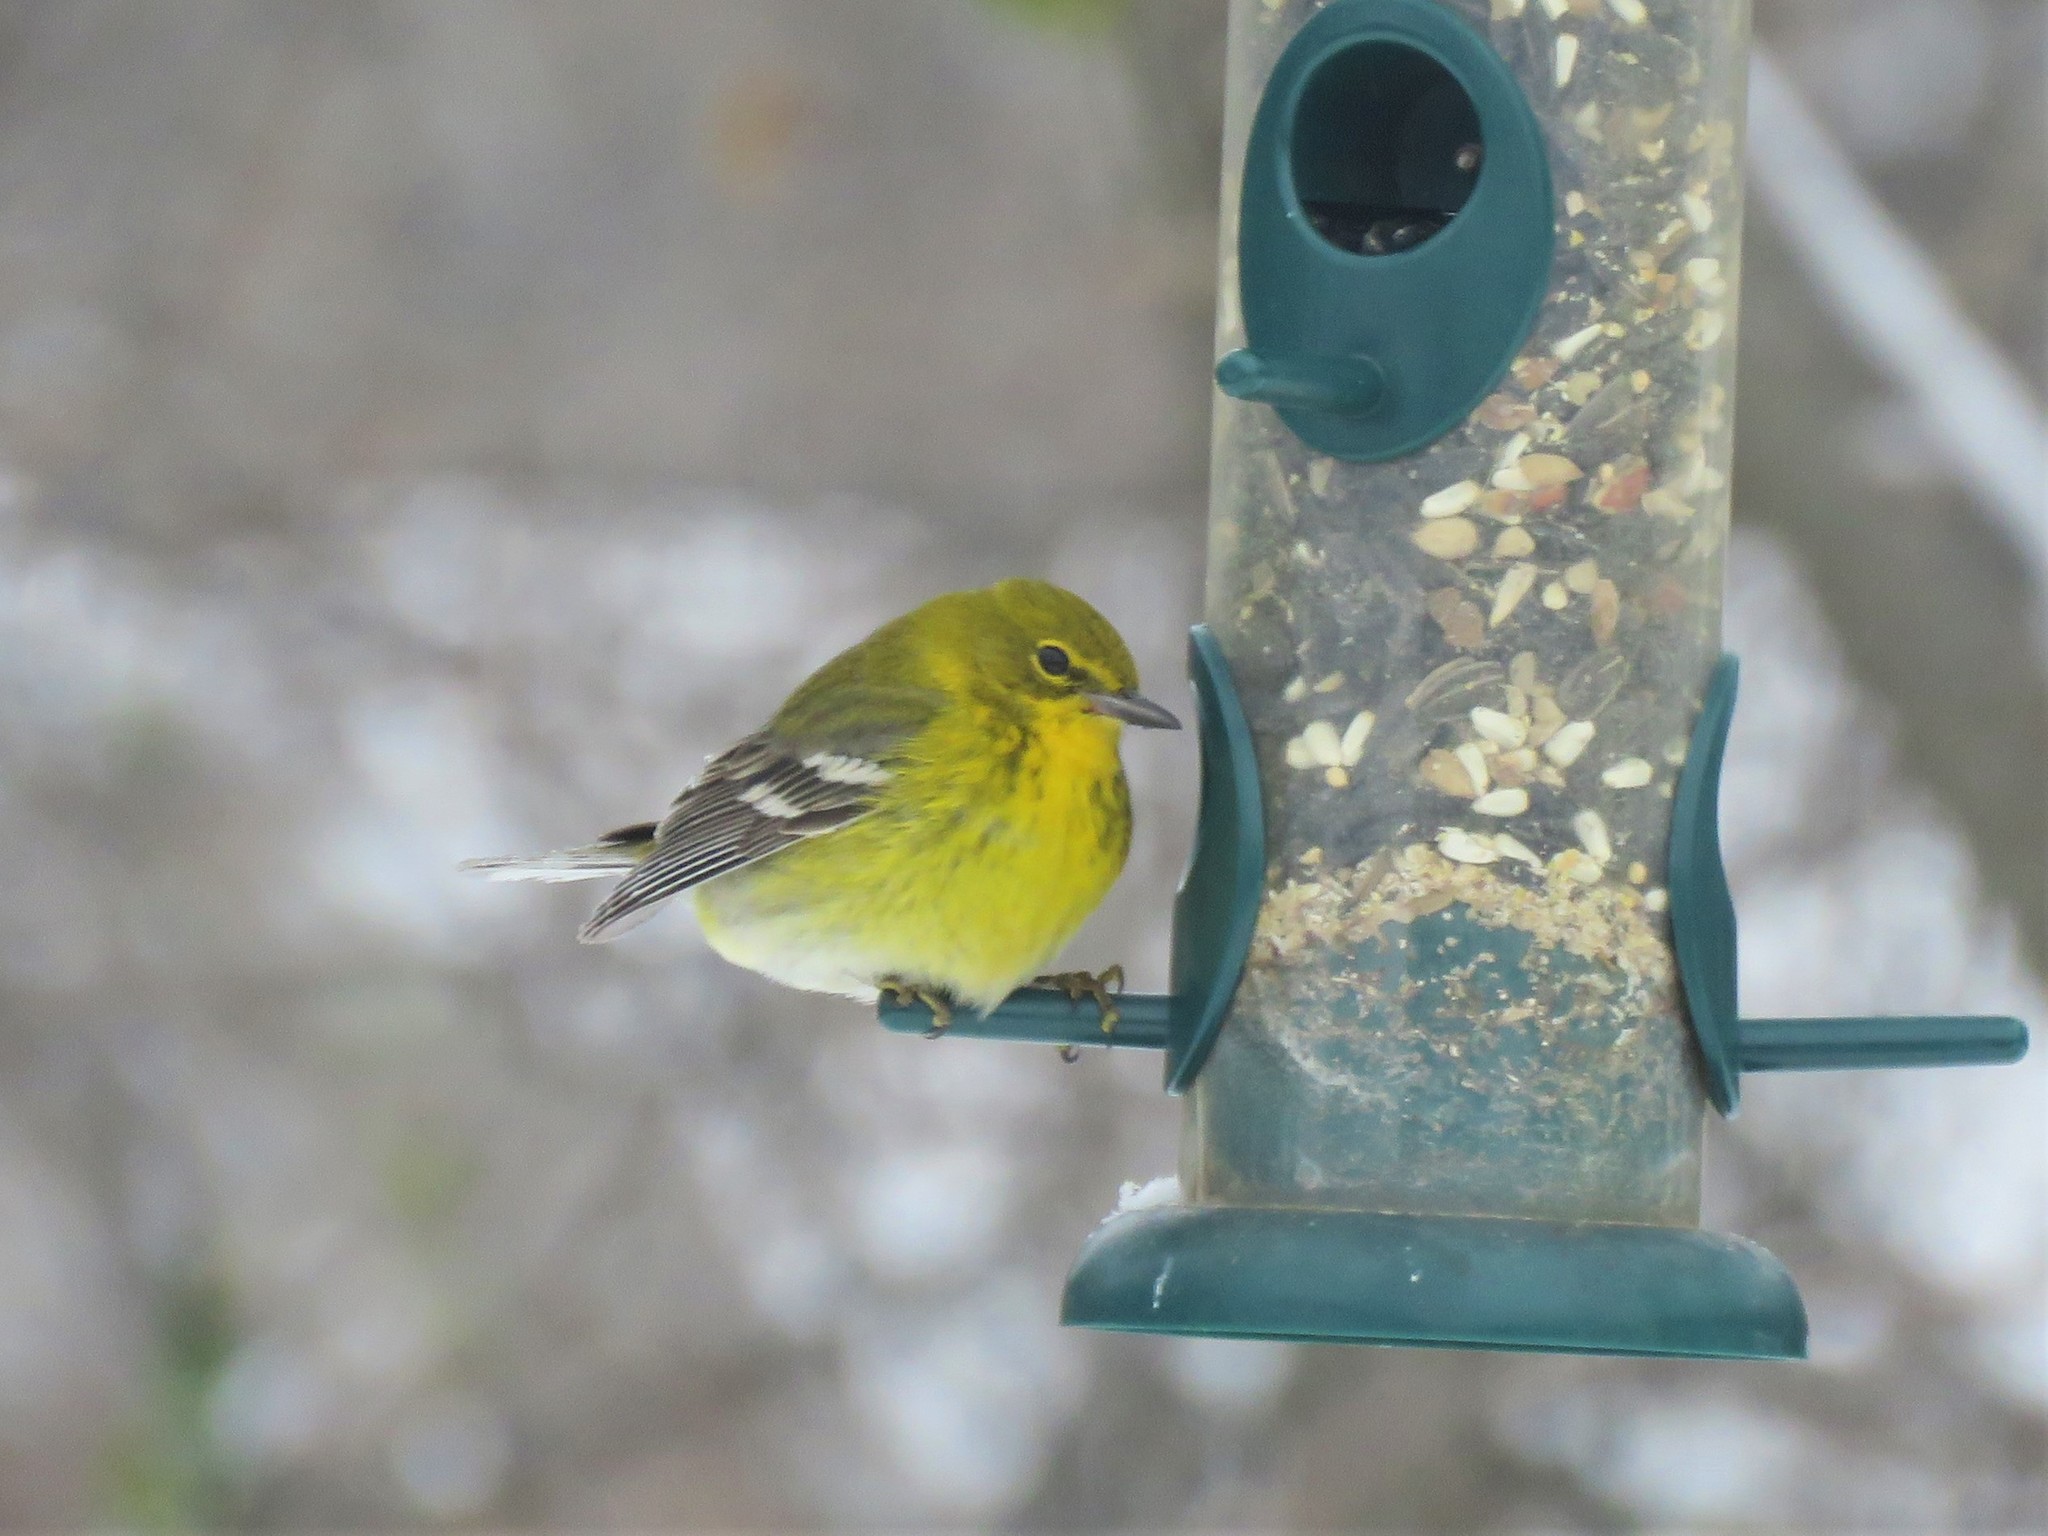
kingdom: Animalia
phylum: Chordata
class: Aves
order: Passeriformes
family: Parulidae
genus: Setophaga
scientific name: Setophaga pinus
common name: Pine warbler
